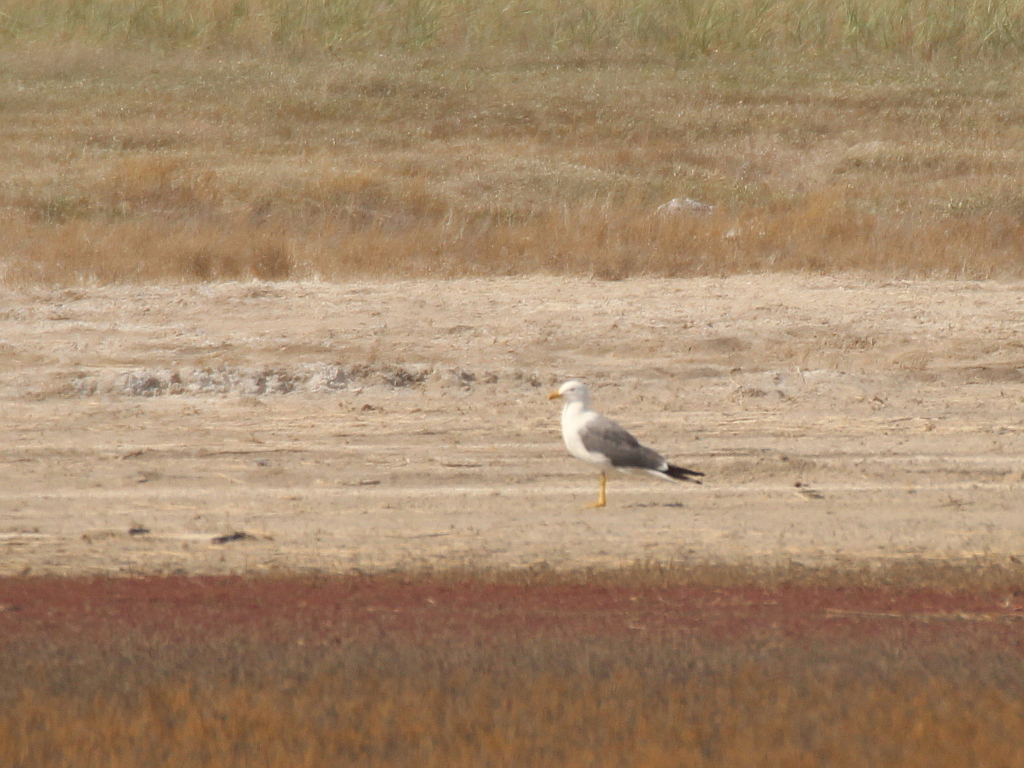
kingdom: Animalia
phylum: Chordata
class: Aves
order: Charadriiformes
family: Laridae
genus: Larus
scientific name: Larus fuscus
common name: Lesser black-backed gull
